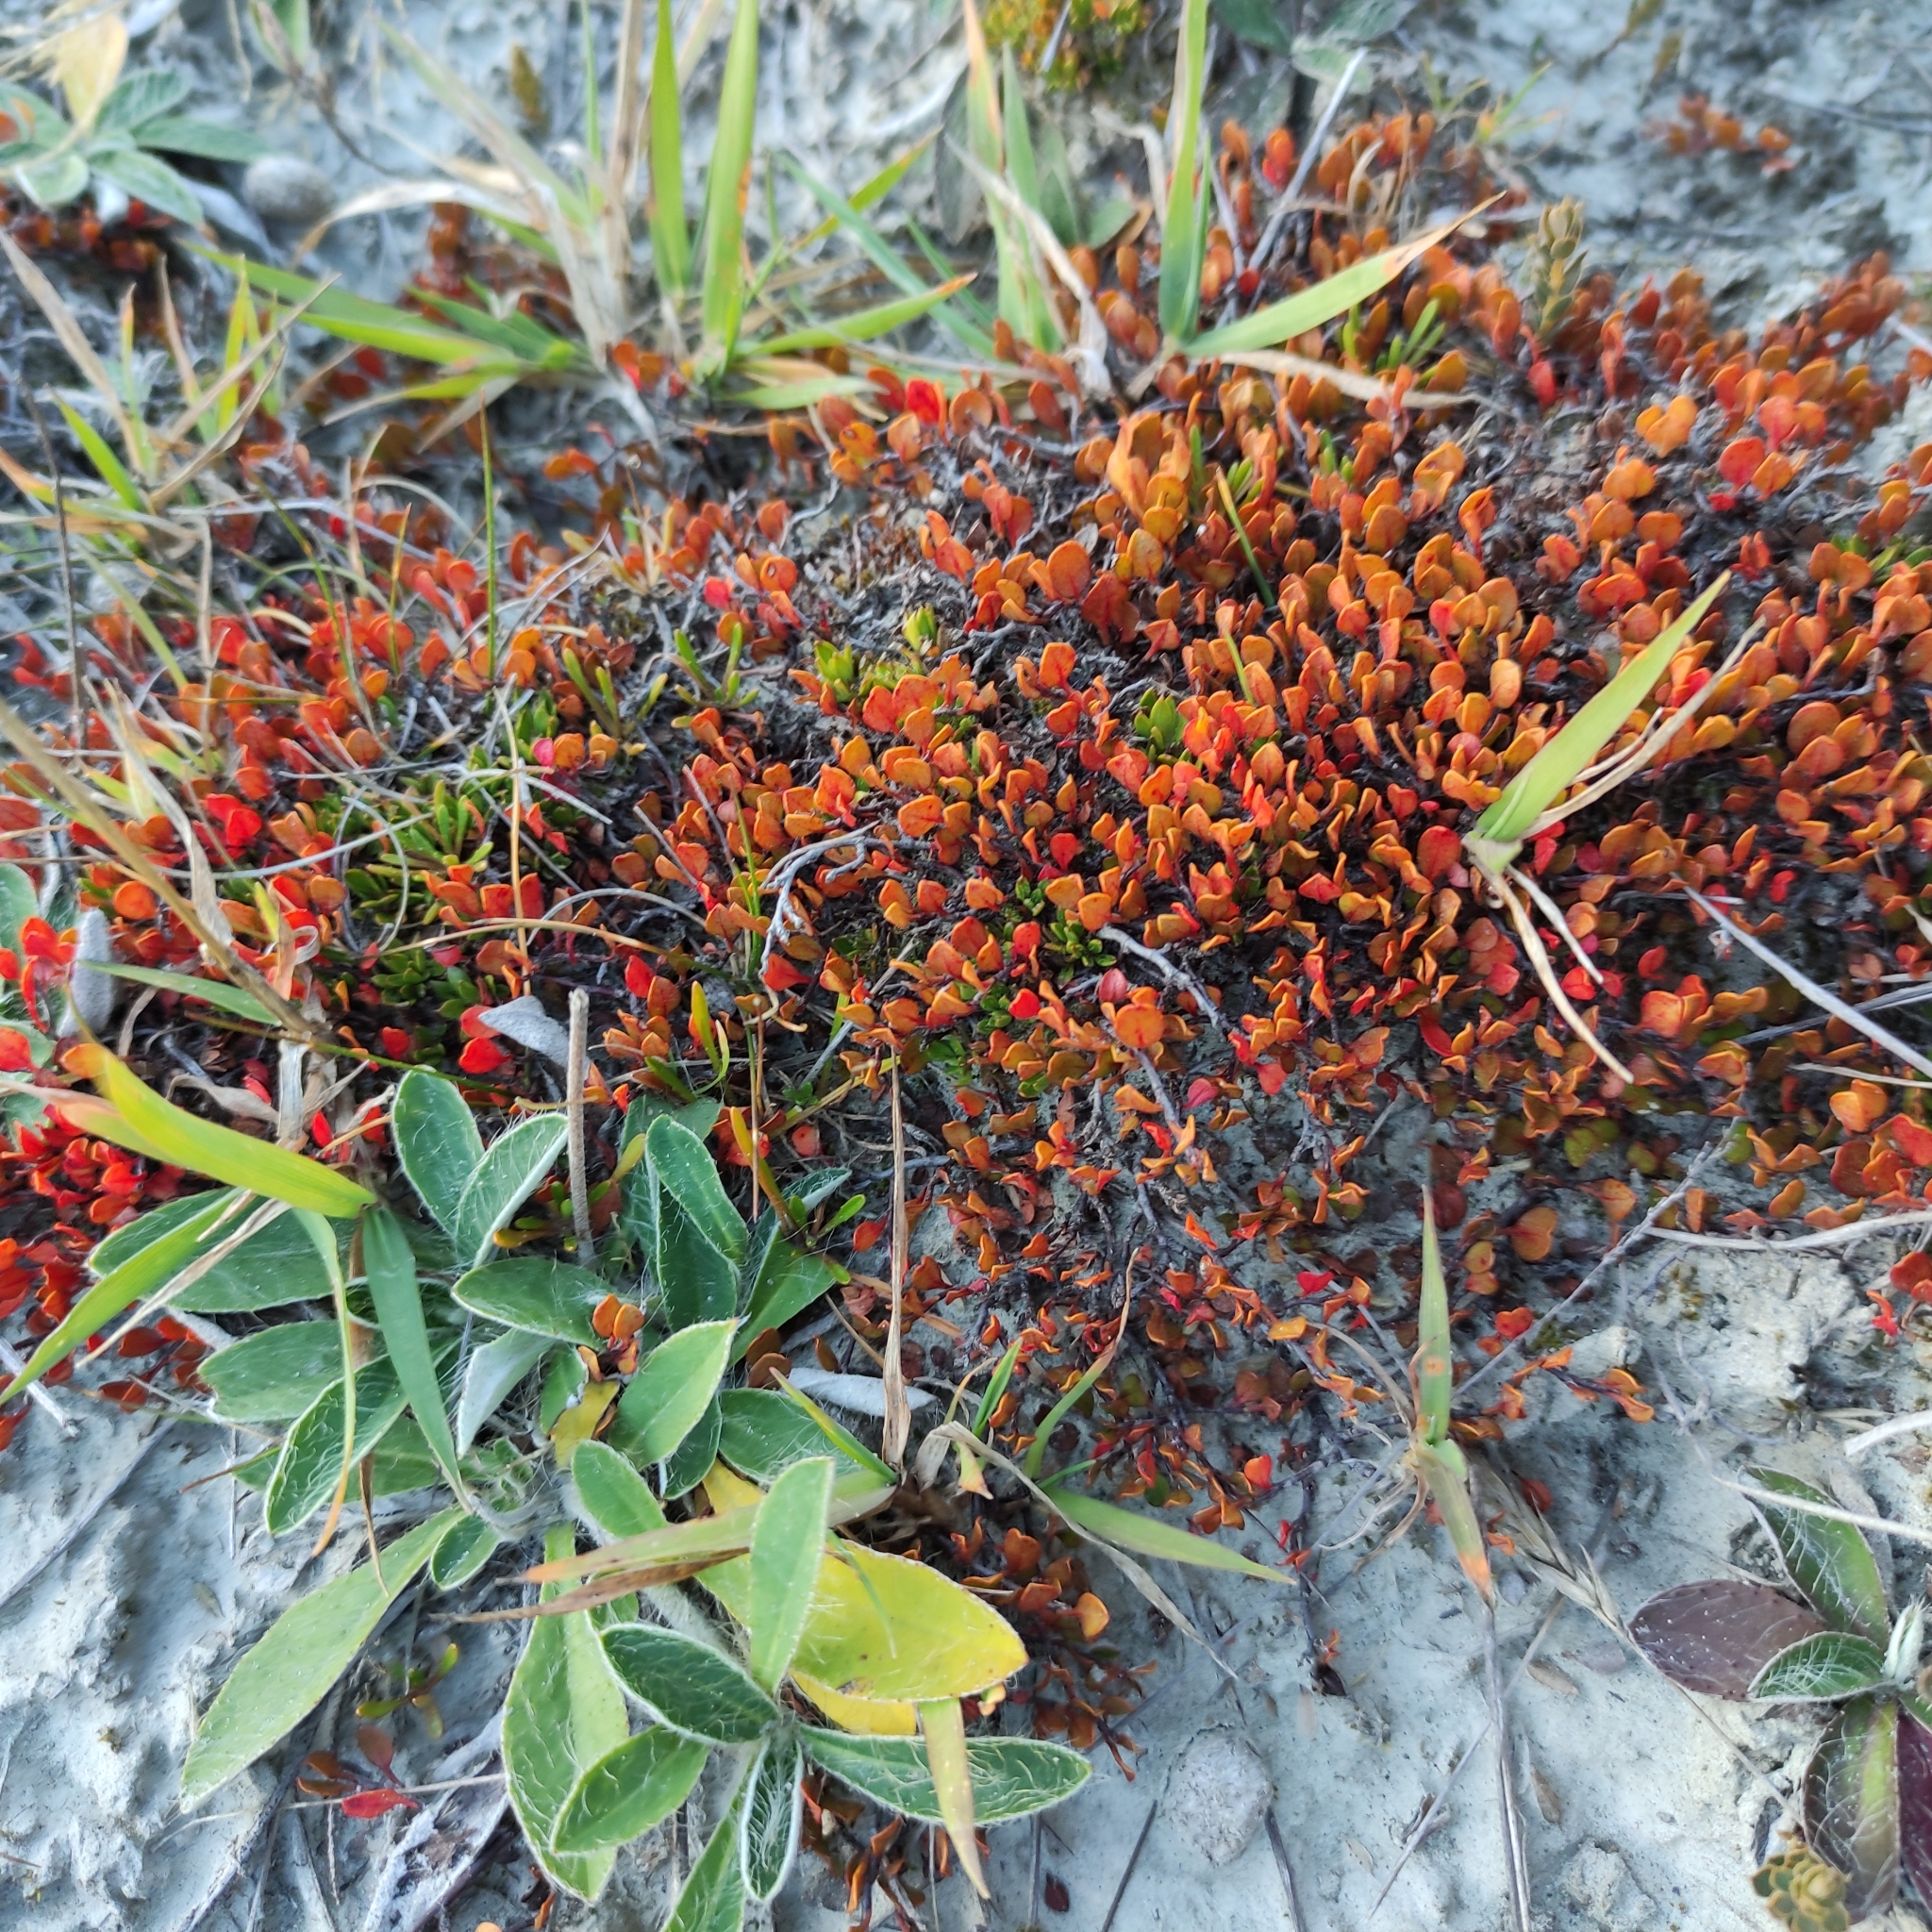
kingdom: Plantae
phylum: Tracheophyta
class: Magnoliopsida
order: Caryophyllales
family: Polygonaceae
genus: Muehlenbeckia
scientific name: Muehlenbeckia axillaris
